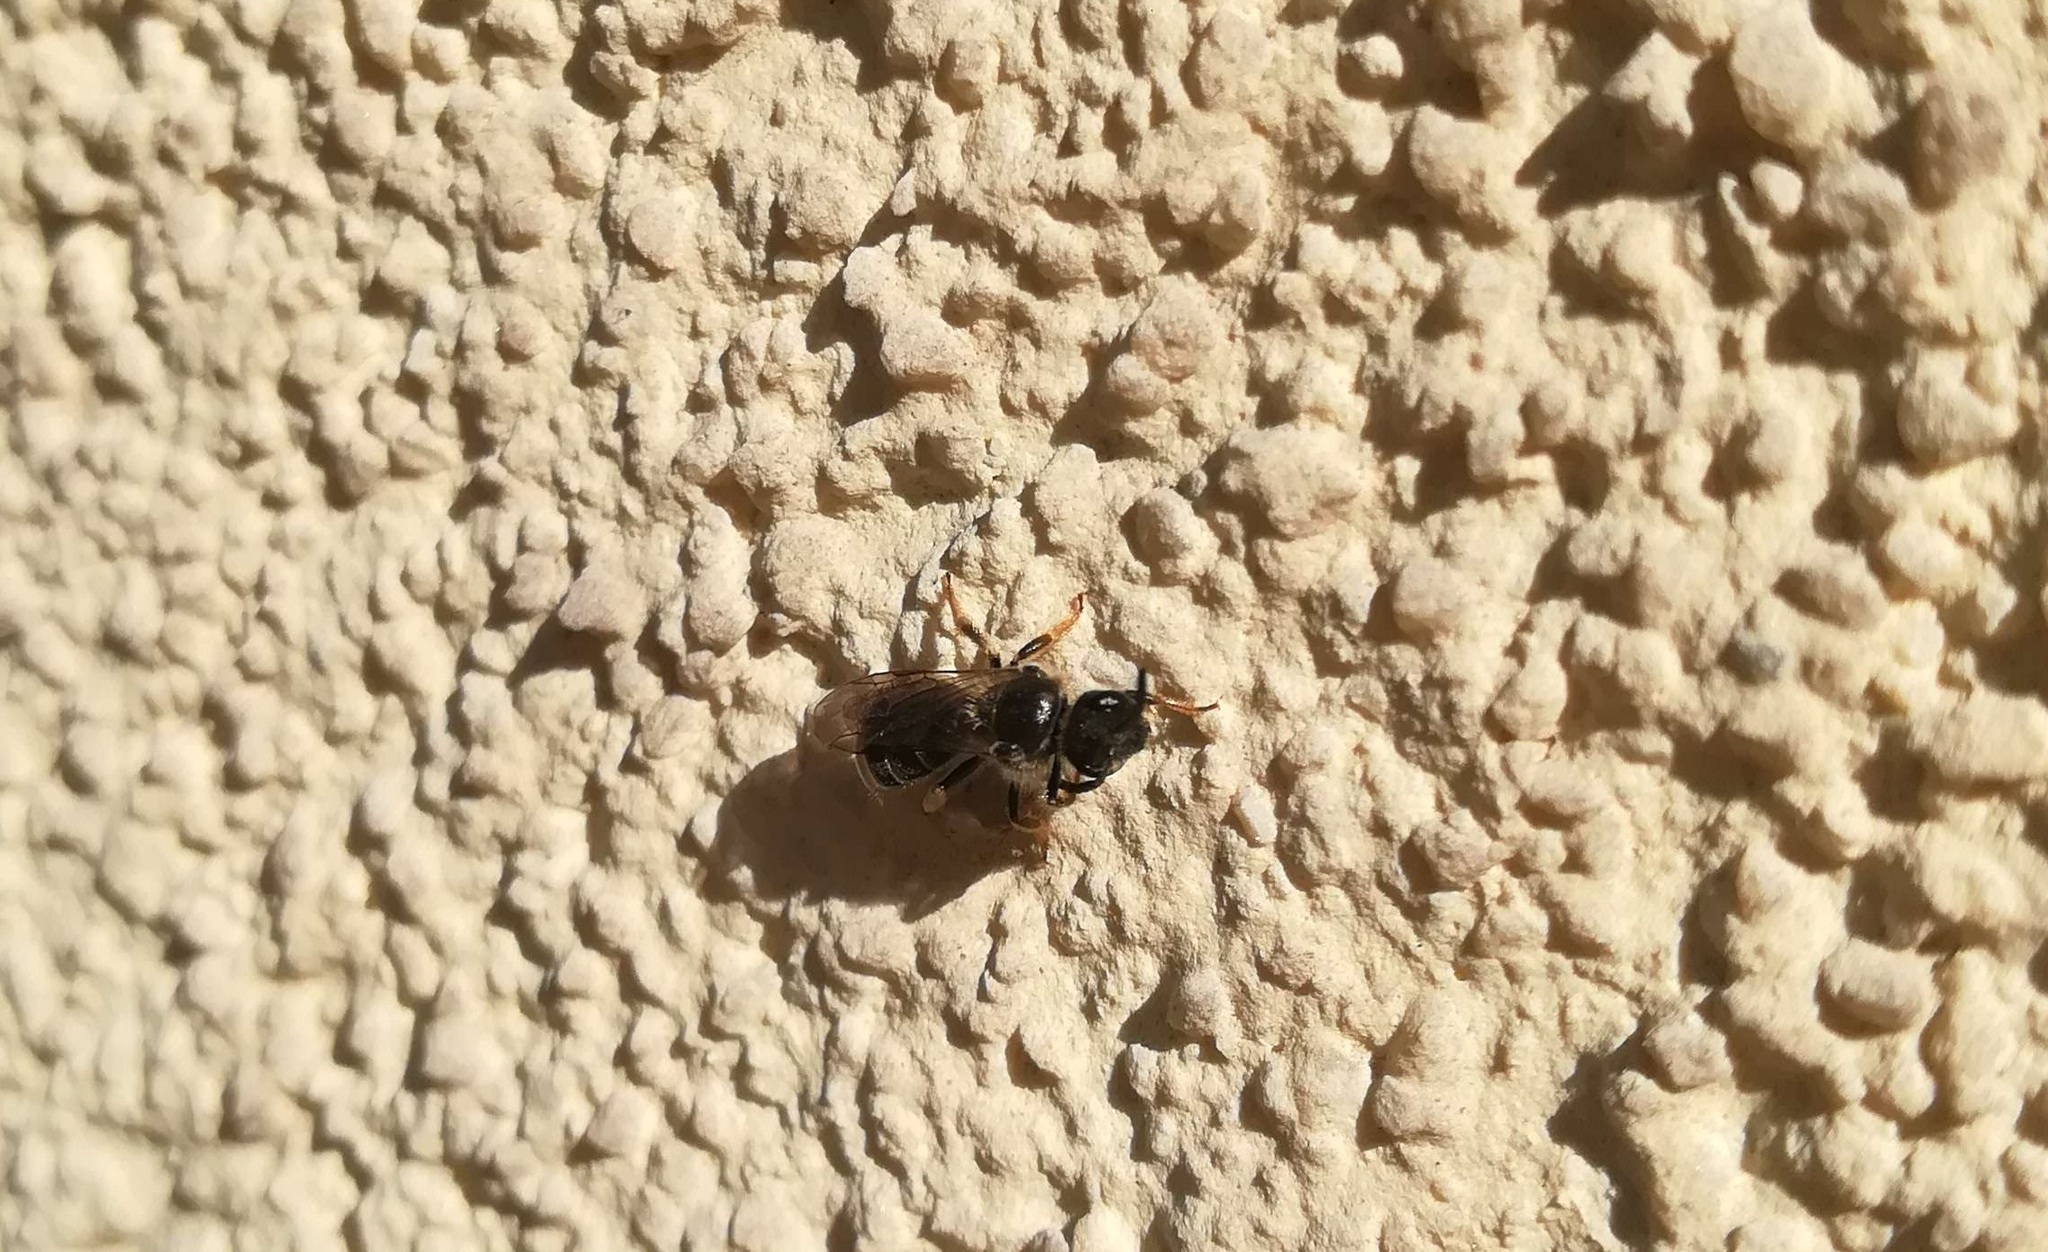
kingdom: Animalia
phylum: Arthropoda
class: Insecta
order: Hymenoptera
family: Halictidae
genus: Lasioglossum
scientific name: Lasioglossum marginatum
